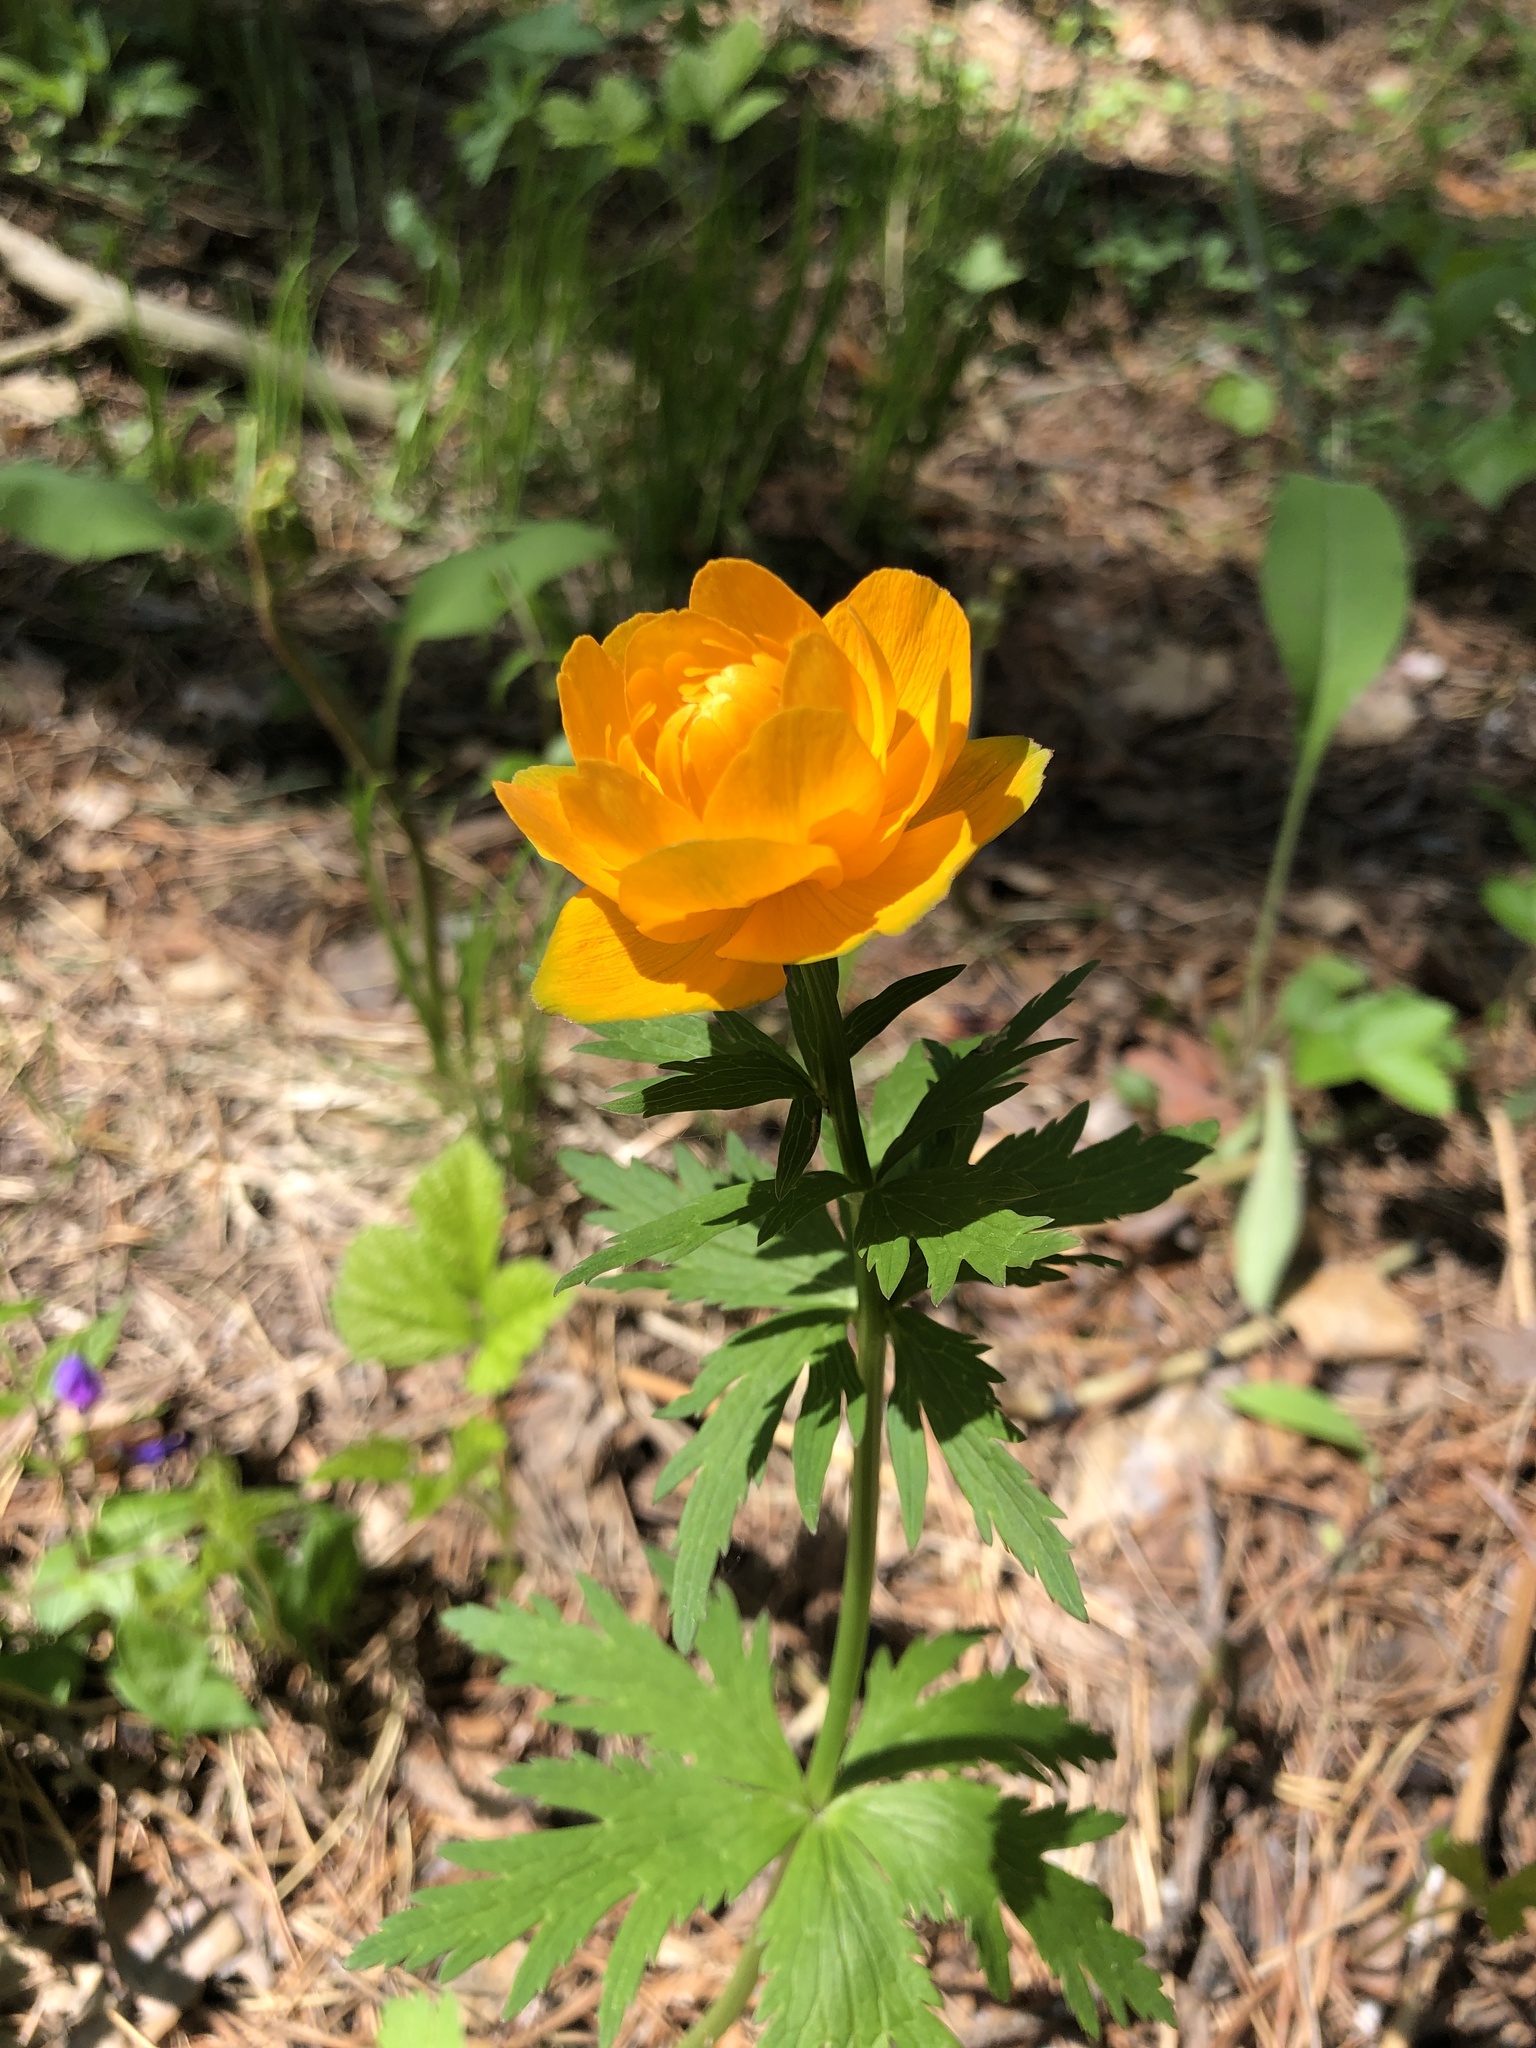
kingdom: Plantae
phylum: Tracheophyta
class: Magnoliopsida
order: Ranunculales
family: Ranunculaceae
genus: Trollius
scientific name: Trollius asiaticus
